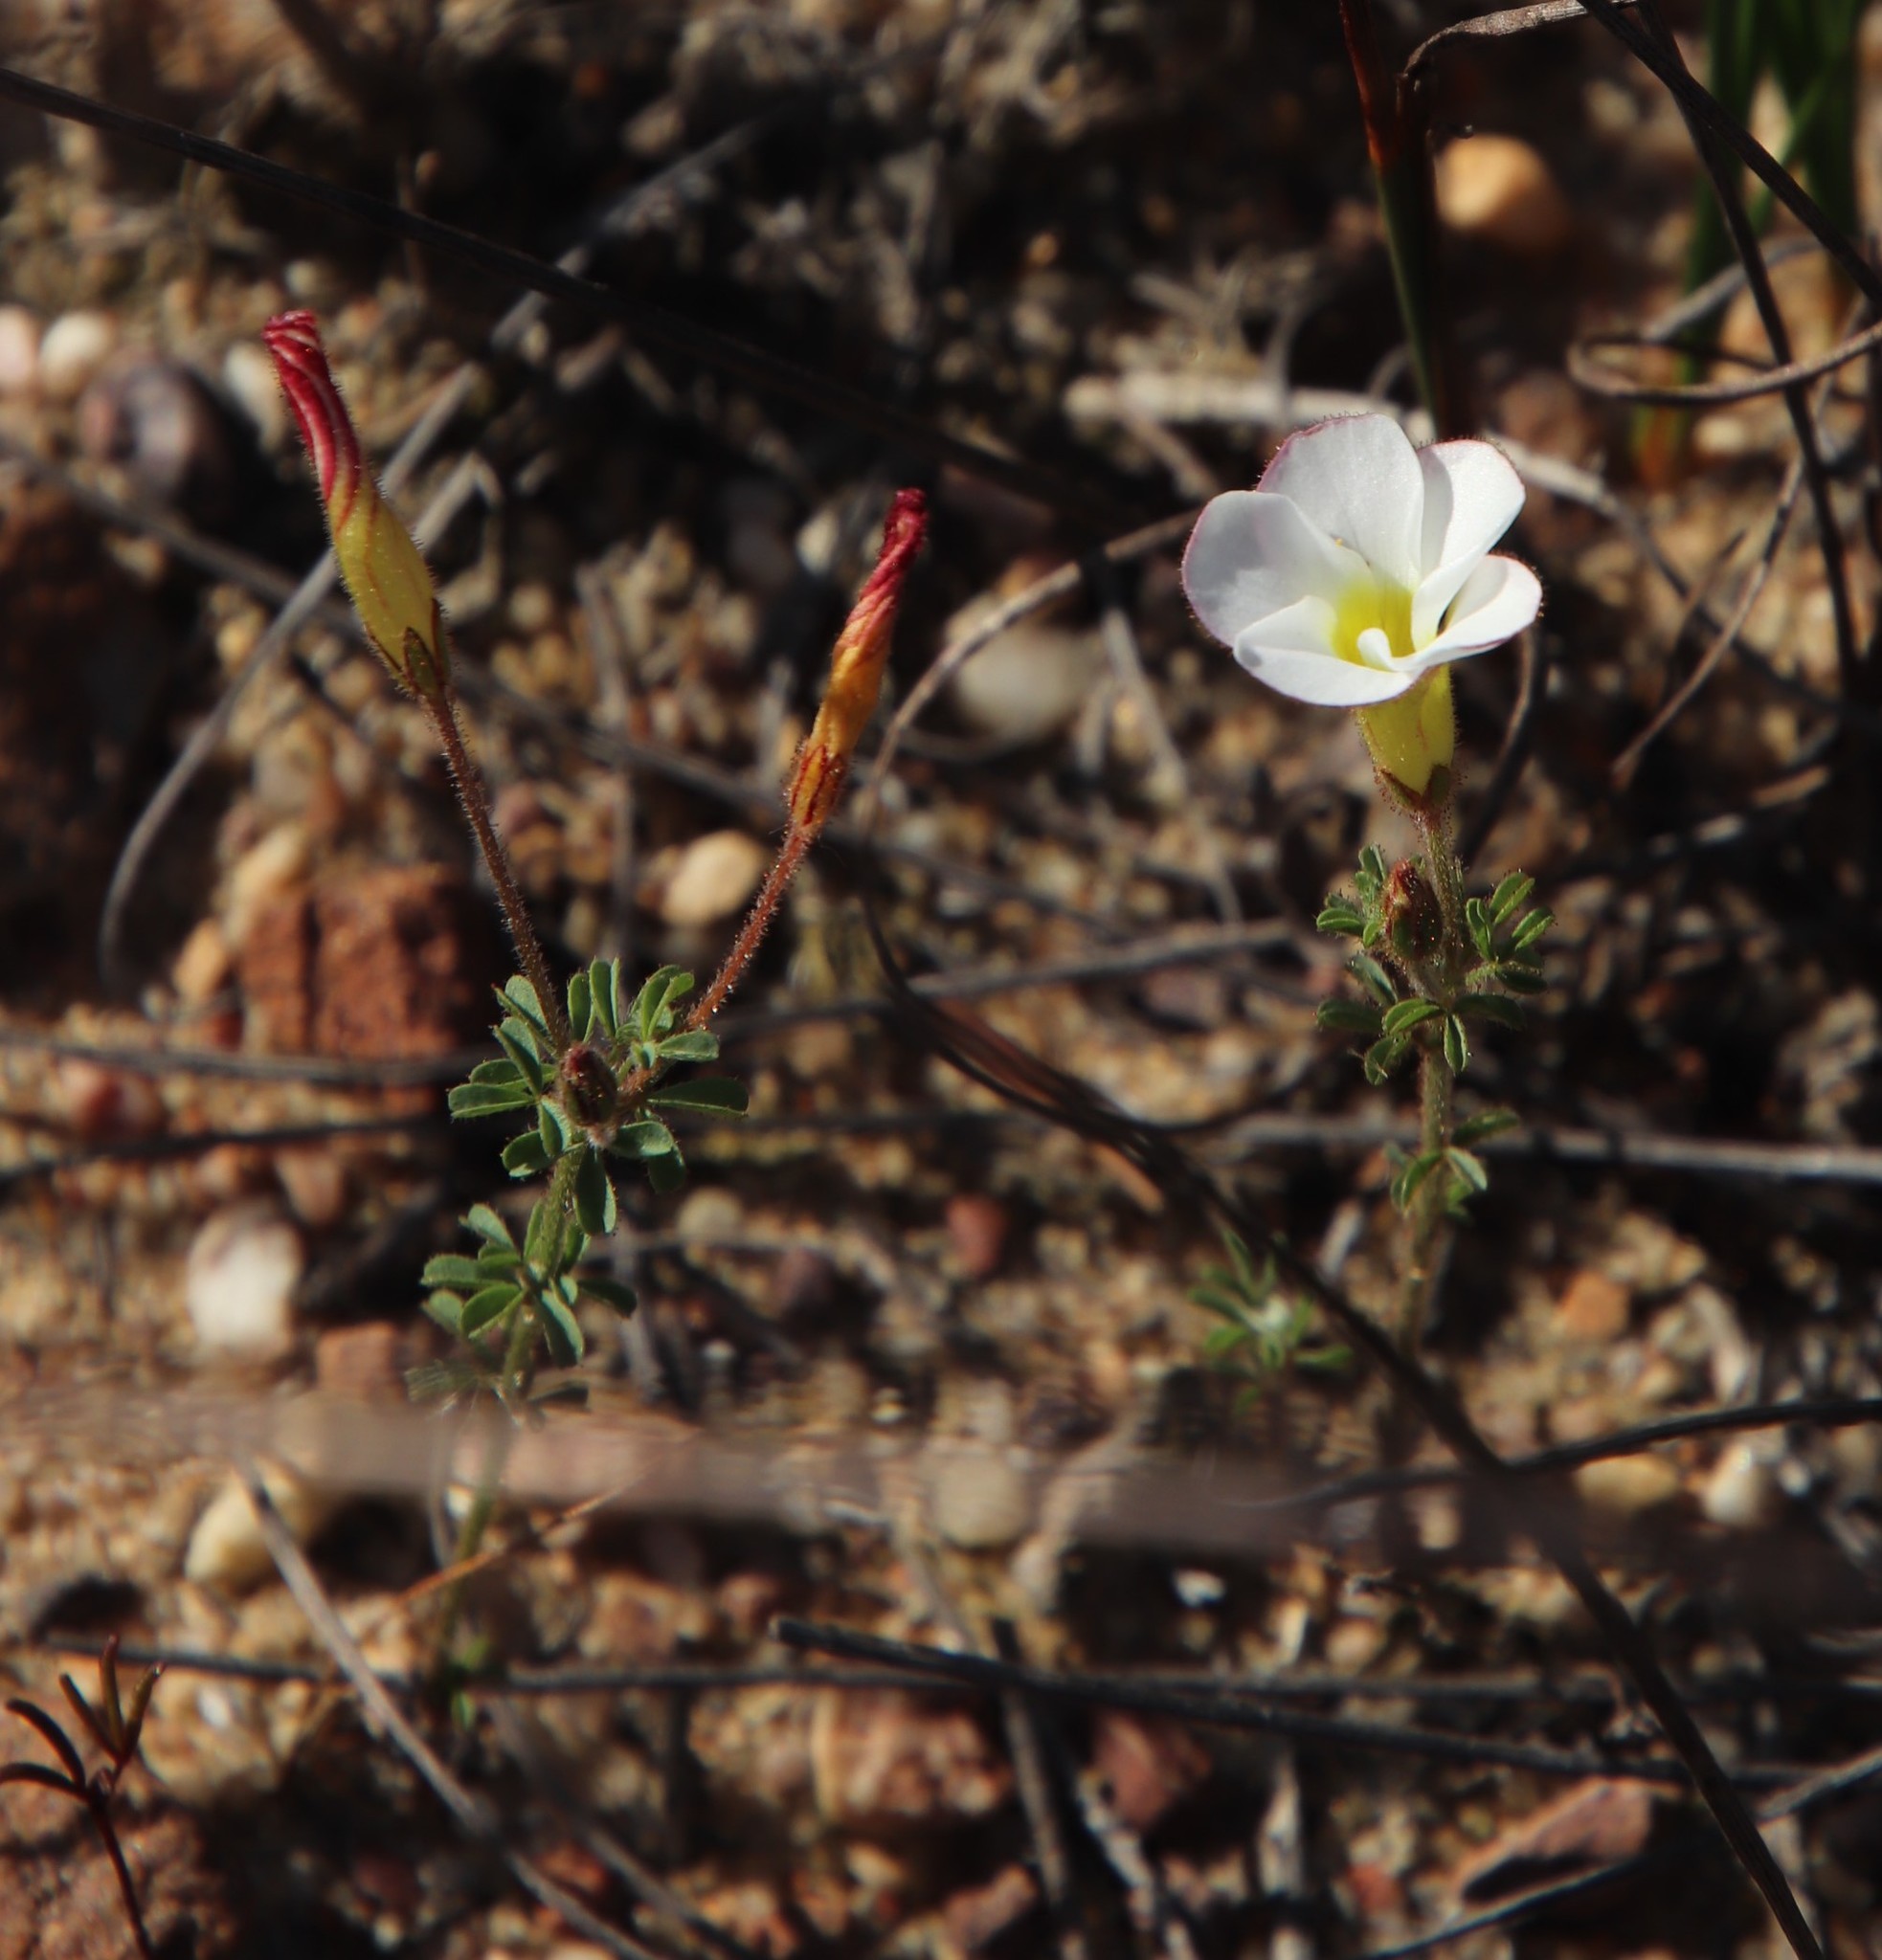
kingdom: Plantae
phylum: Tracheophyta
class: Magnoliopsida
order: Oxalidales
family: Oxalidaceae
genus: Oxalis
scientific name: Oxalis multicaulis
